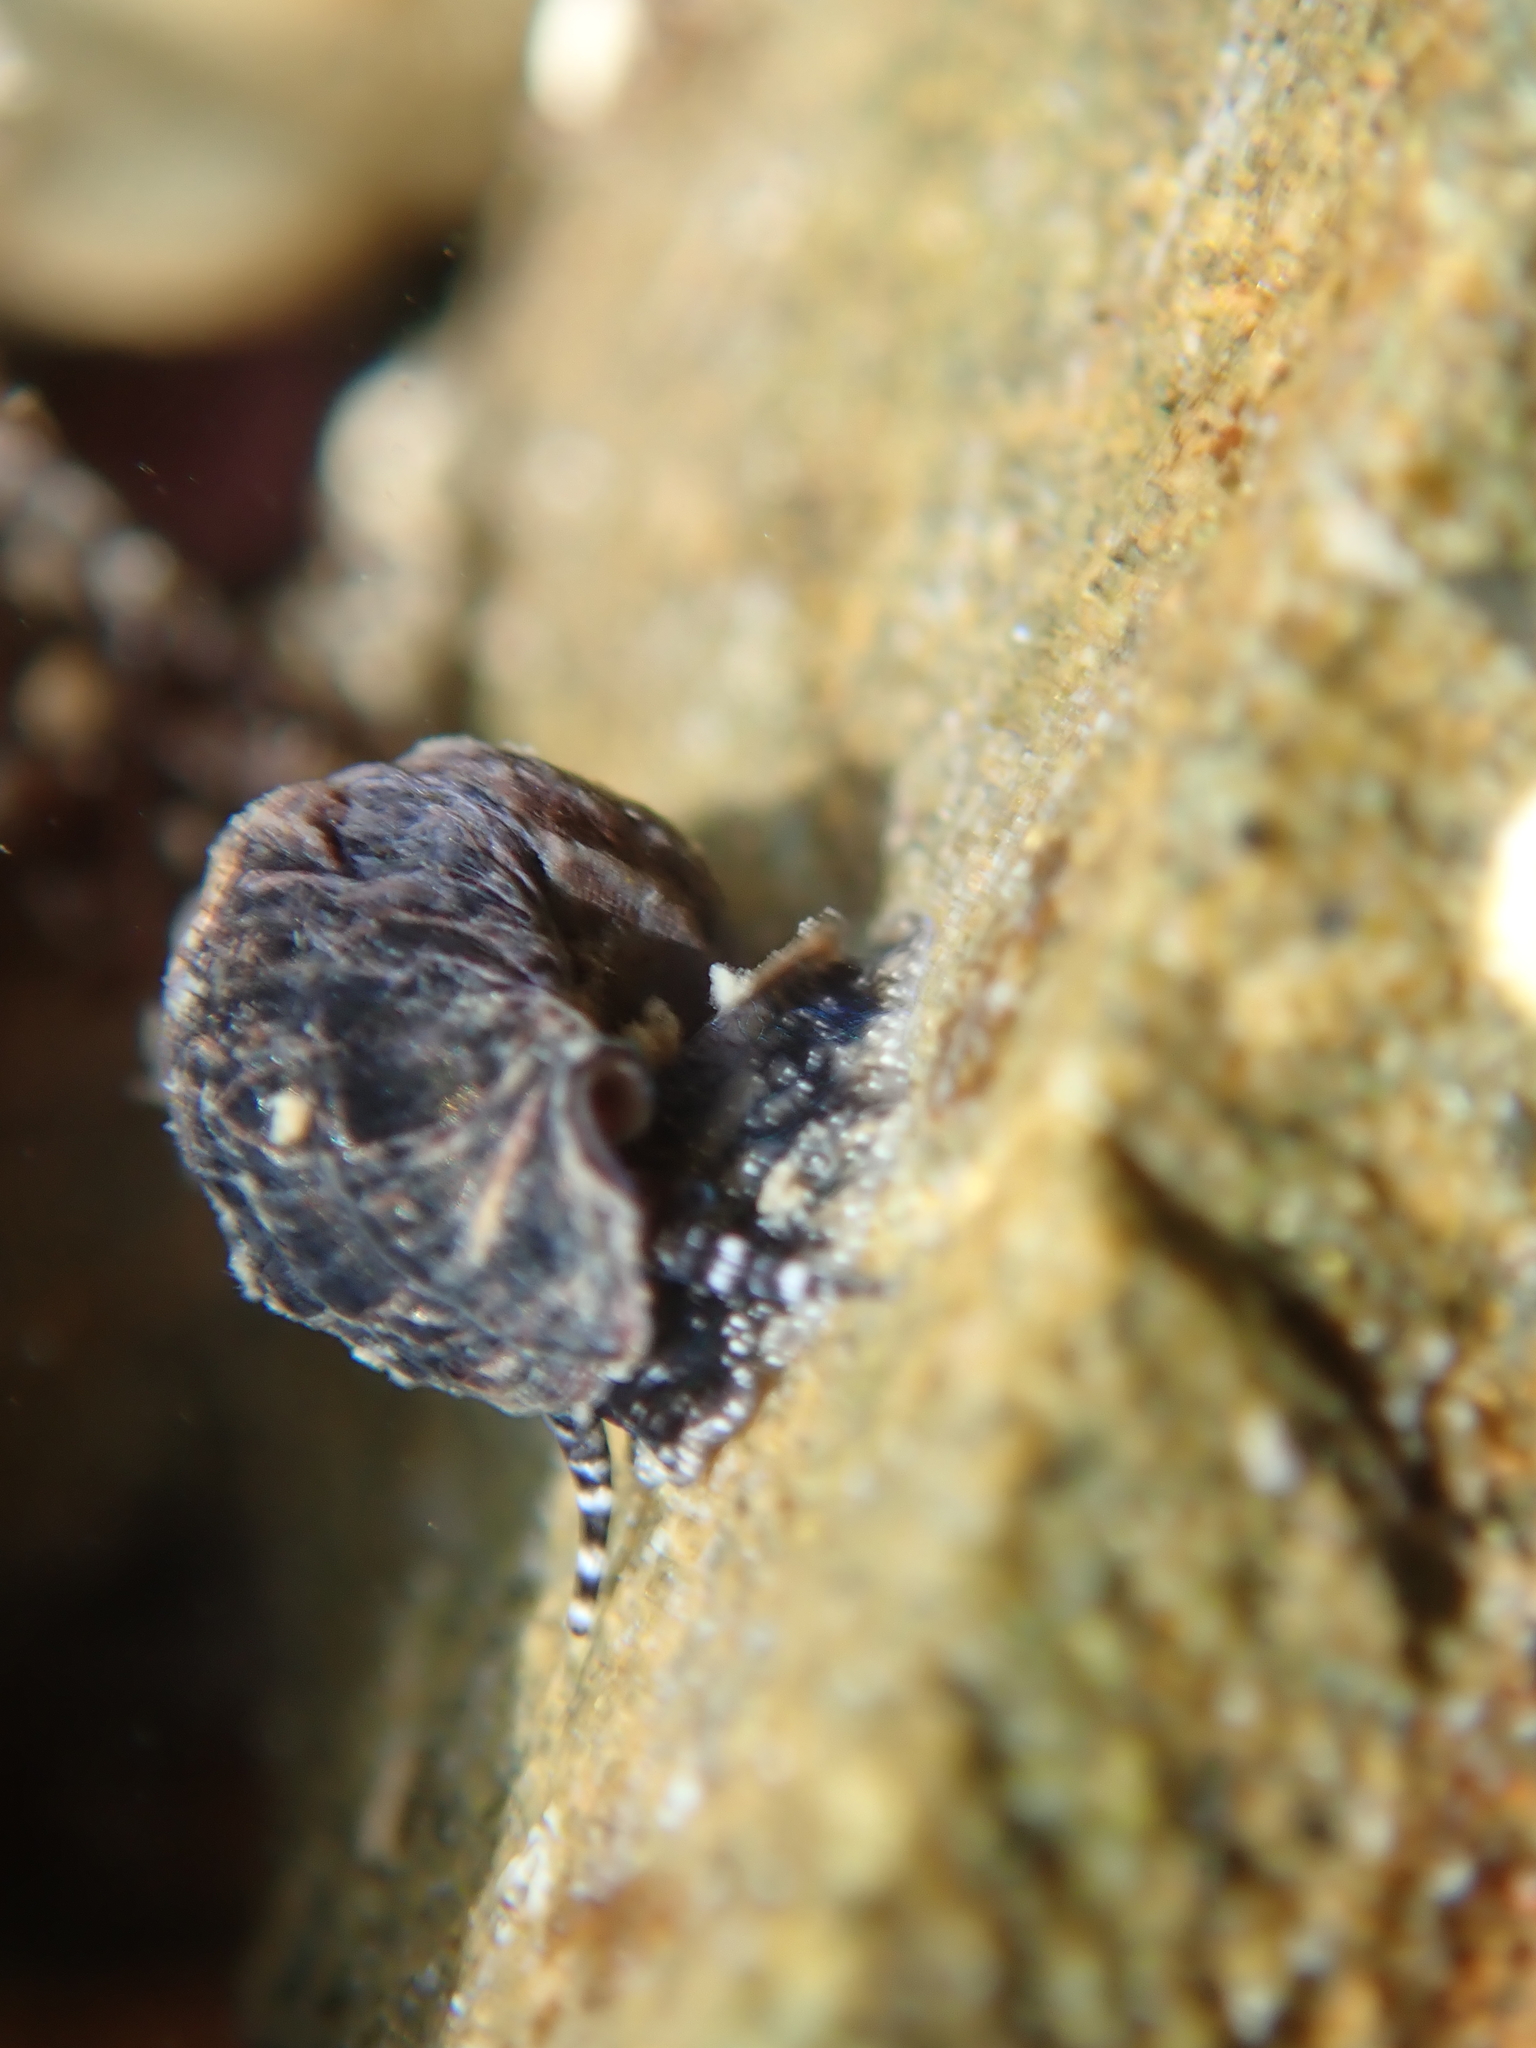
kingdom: Animalia
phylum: Mollusca
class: Gastropoda
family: Batillariidae
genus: Zeacumantus
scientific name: Zeacumantus subcarinatus
